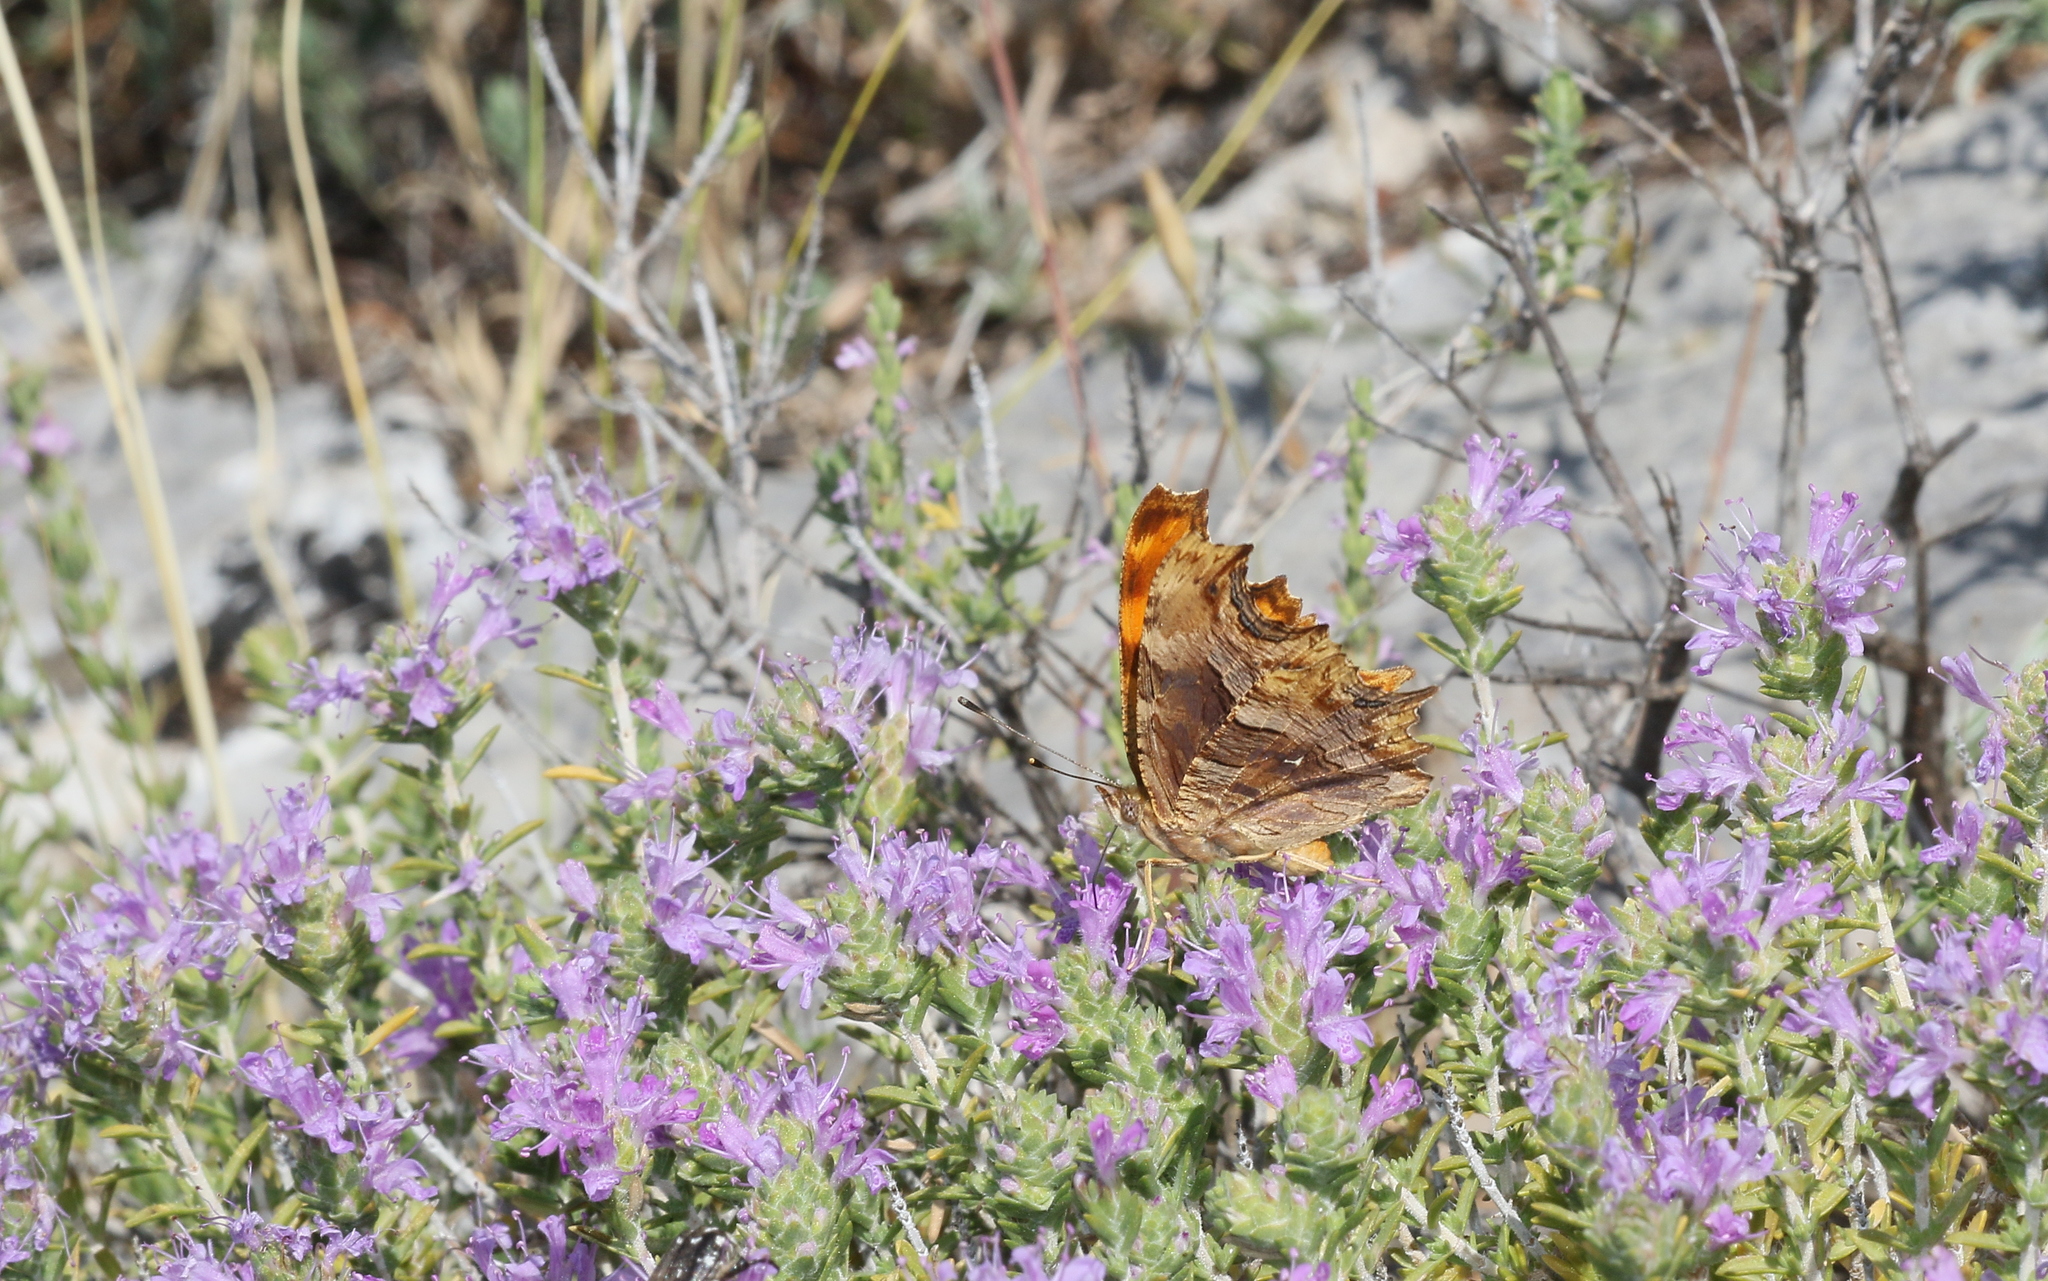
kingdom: Animalia
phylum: Arthropoda
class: Insecta
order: Lepidoptera
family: Nymphalidae
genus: Polygonia
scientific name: Polygonia egea
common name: Southern comma
